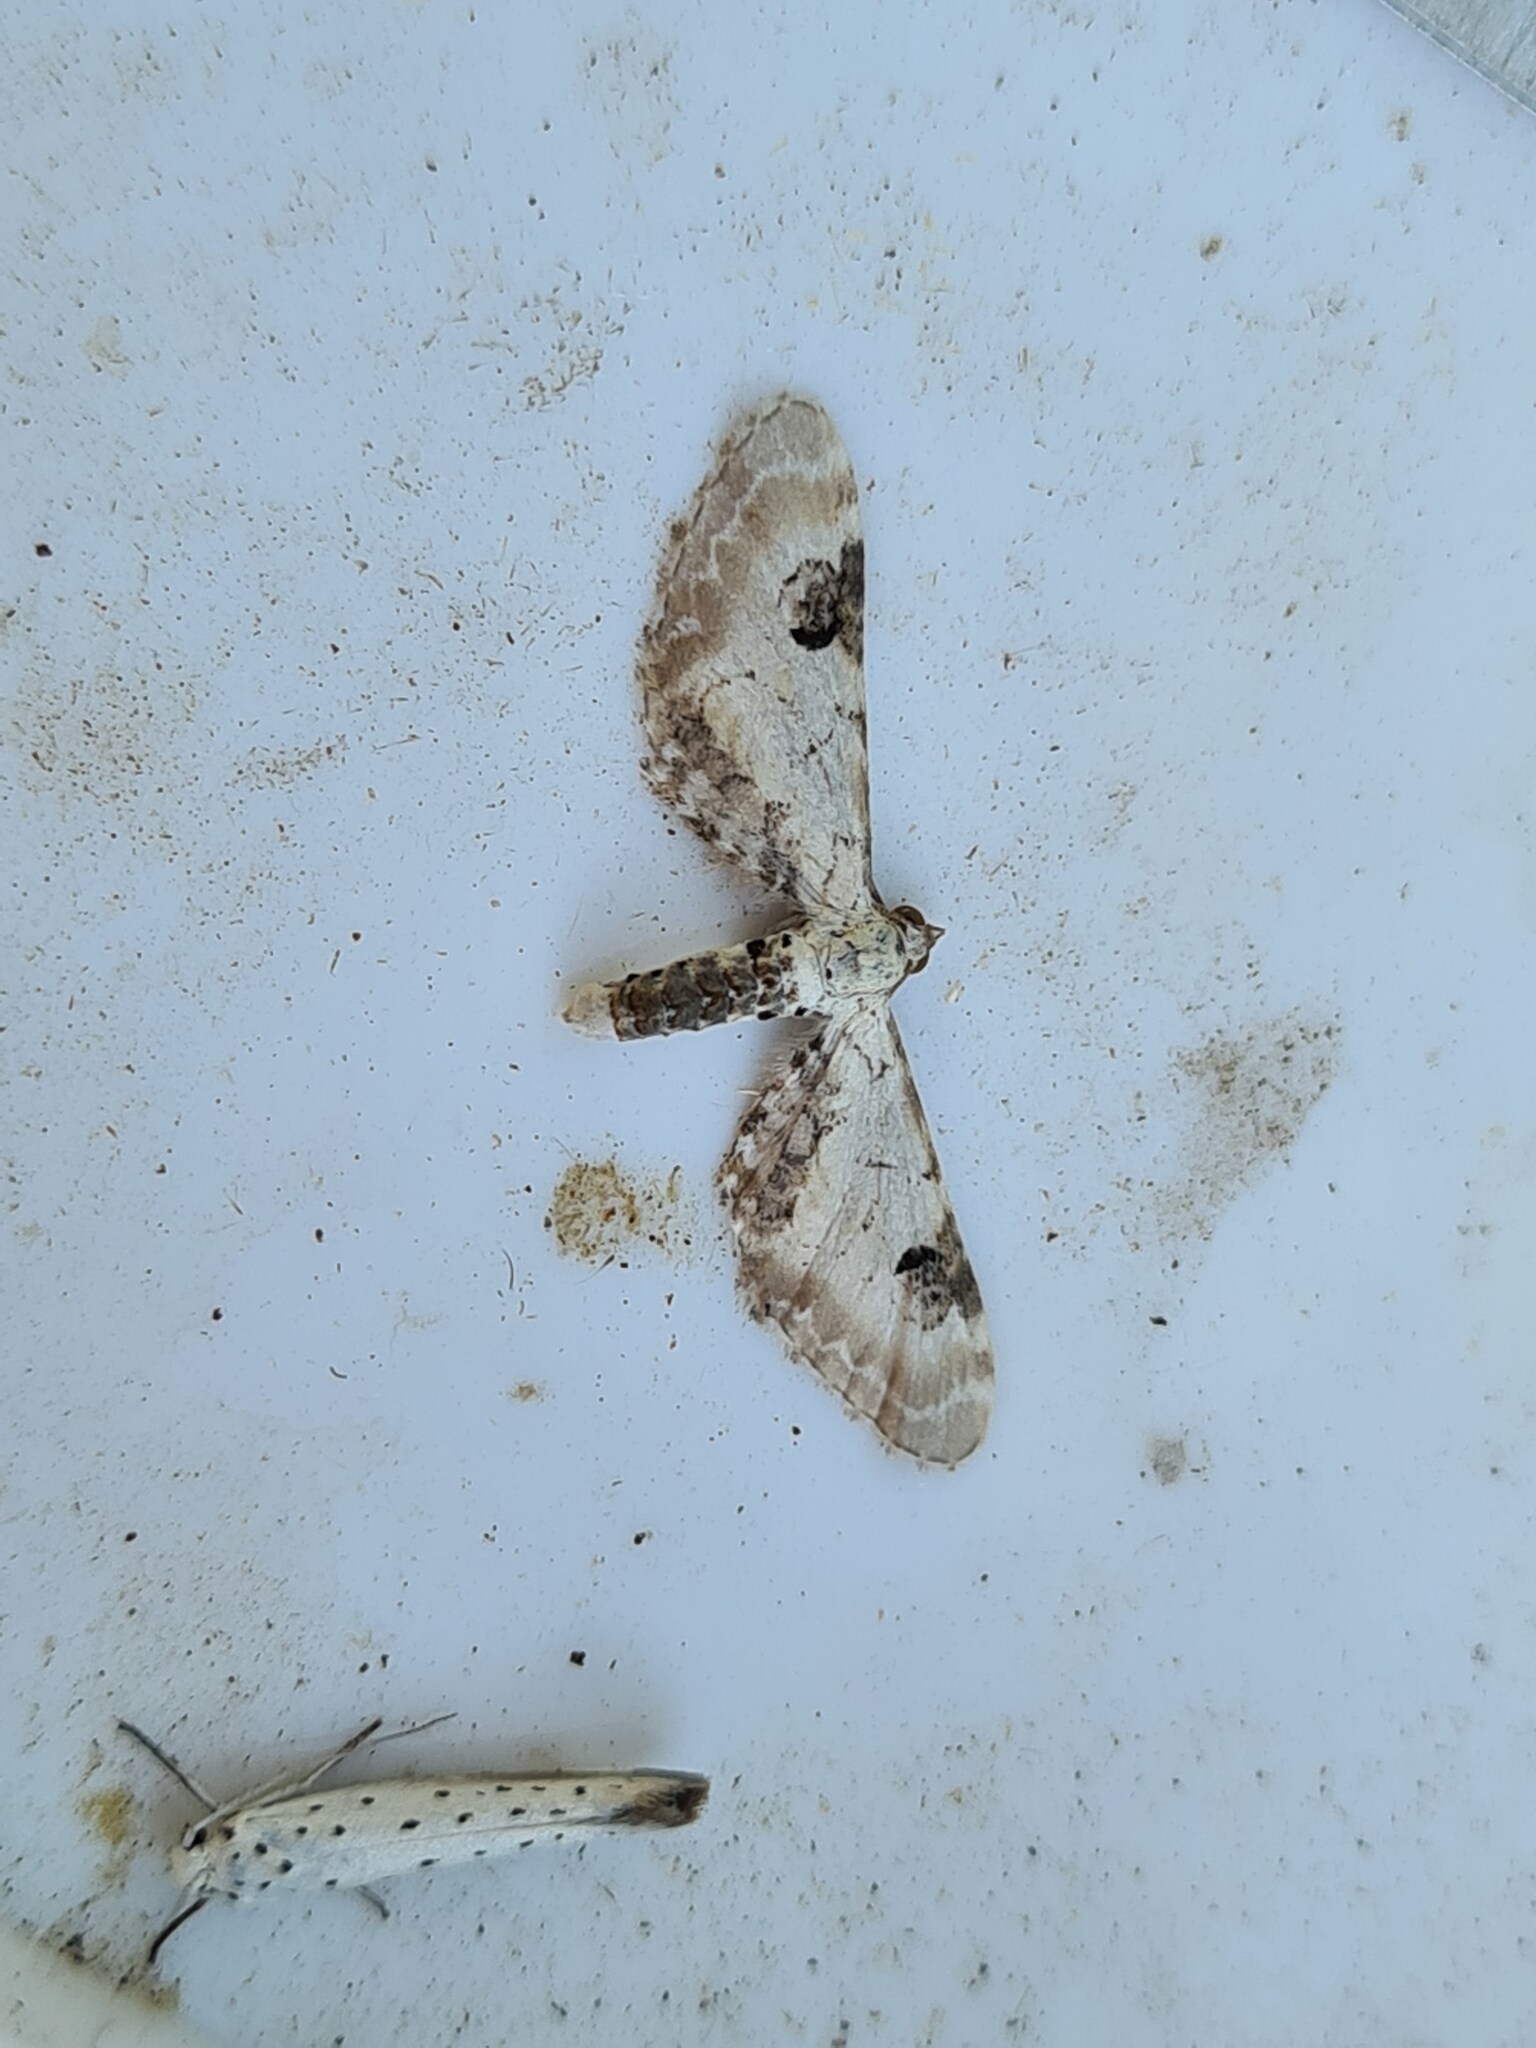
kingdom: Animalia
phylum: Arthropoda
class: Insecta
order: Lepidoptera
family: Geometridae
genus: Eupithecia
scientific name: Eupithecia centaureata
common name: Lime-speck pug
